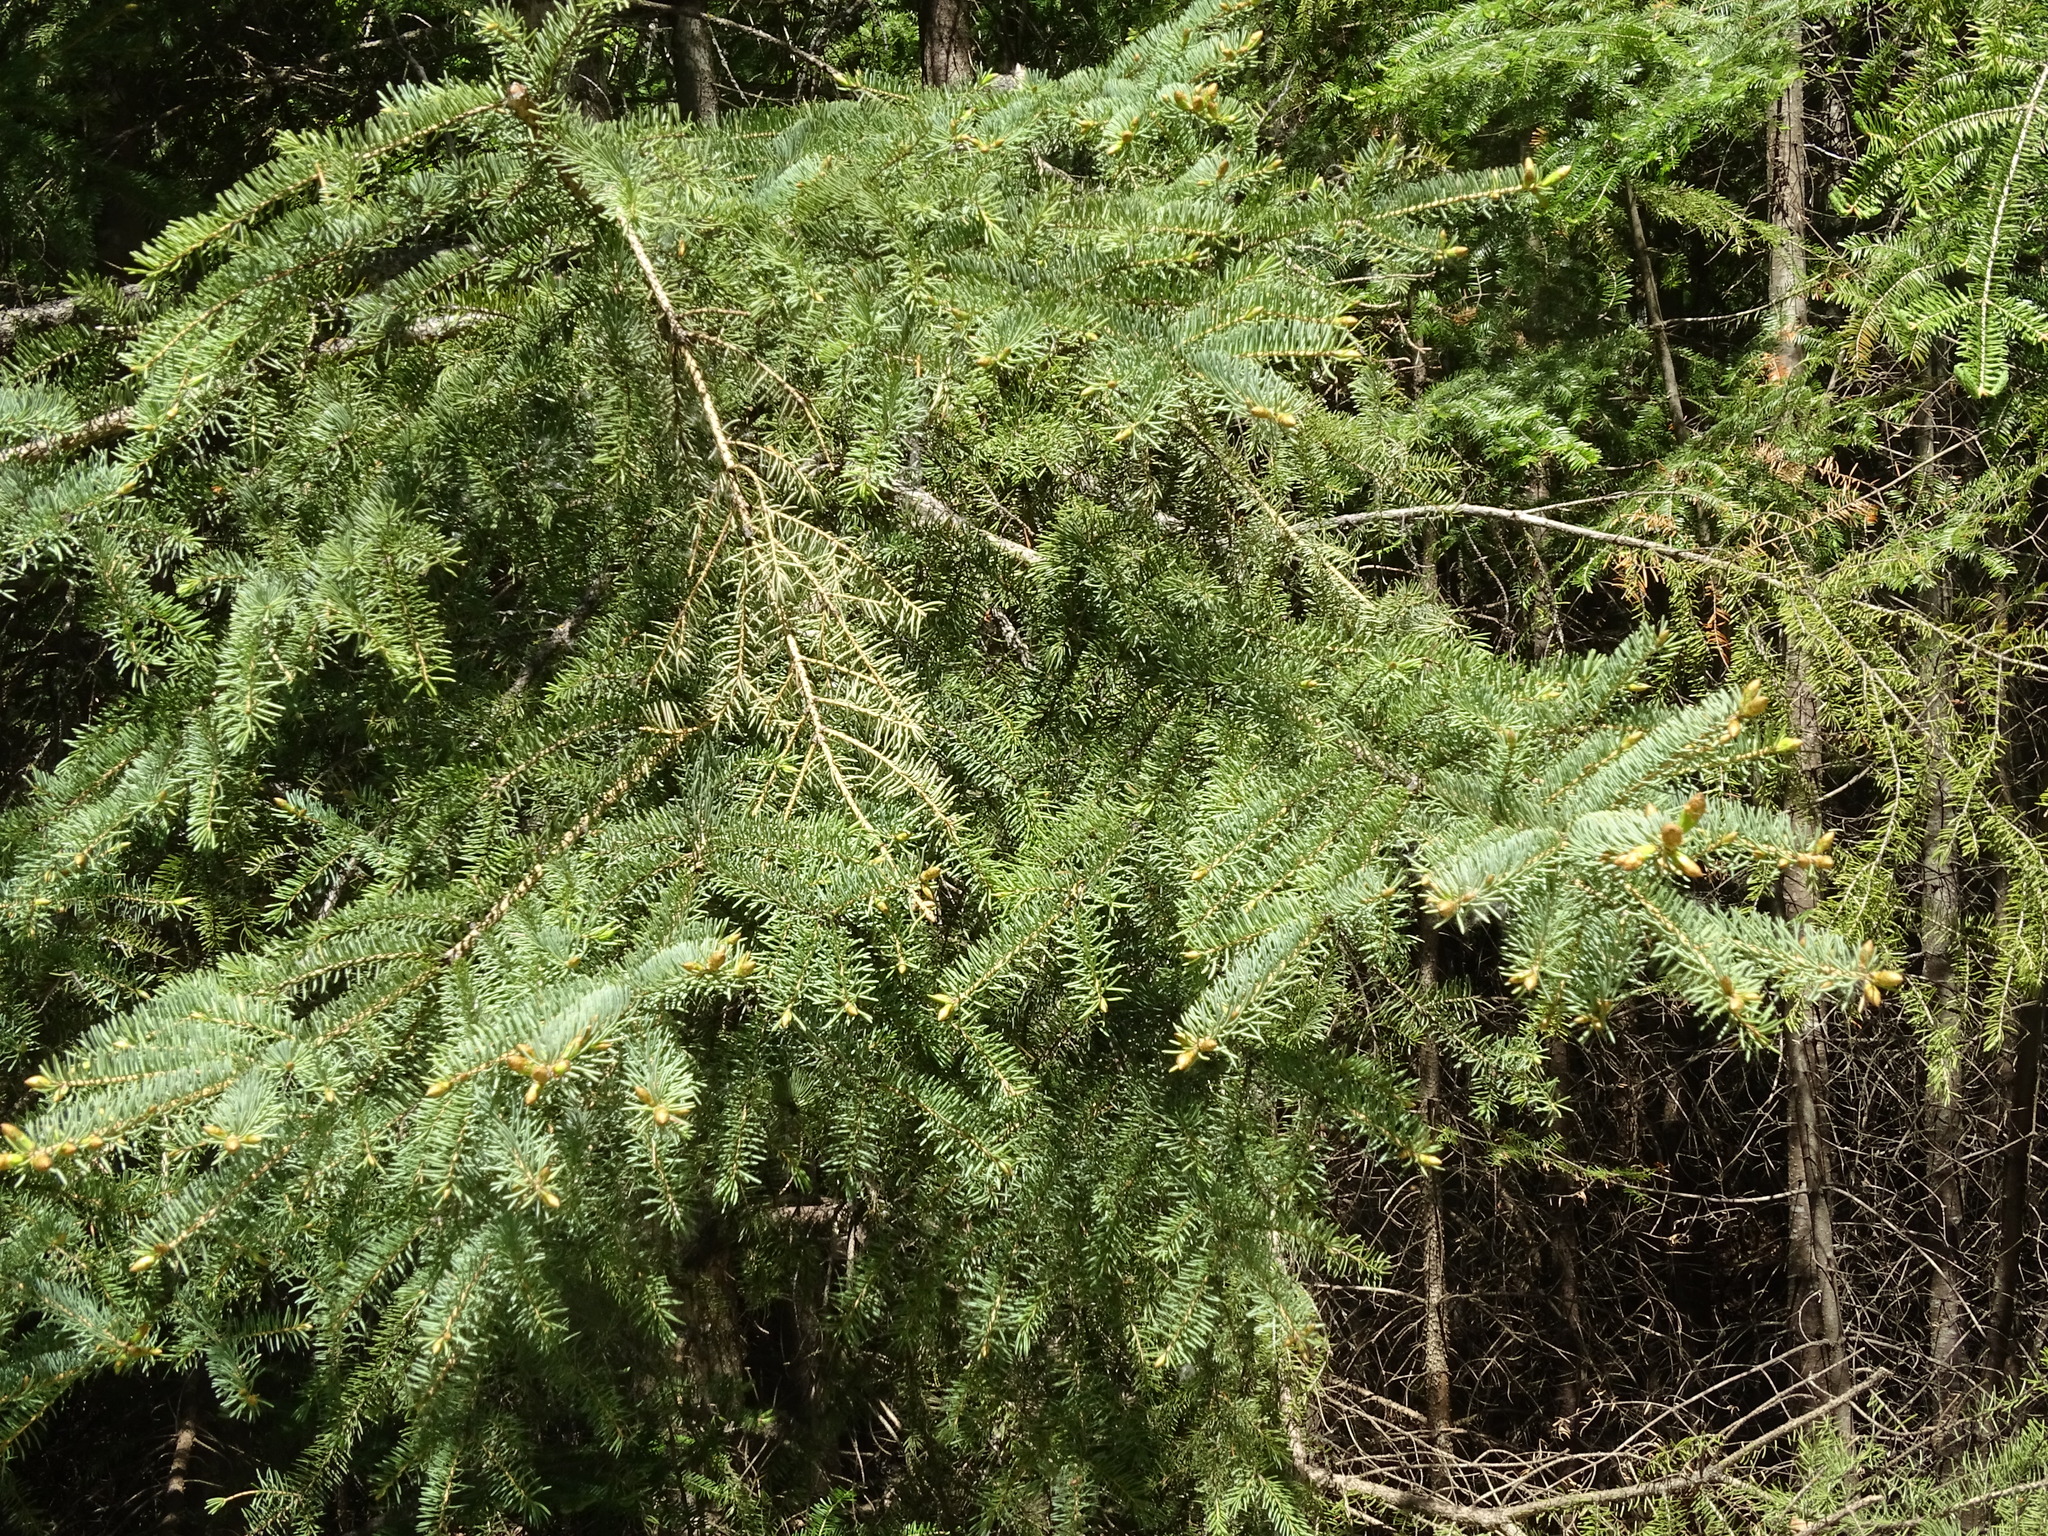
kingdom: Plantae
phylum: Tracheophyta
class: Pinopsida
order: Pinales
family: Pinaceae
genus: Picea
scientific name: Picea glauca
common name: White spruce
